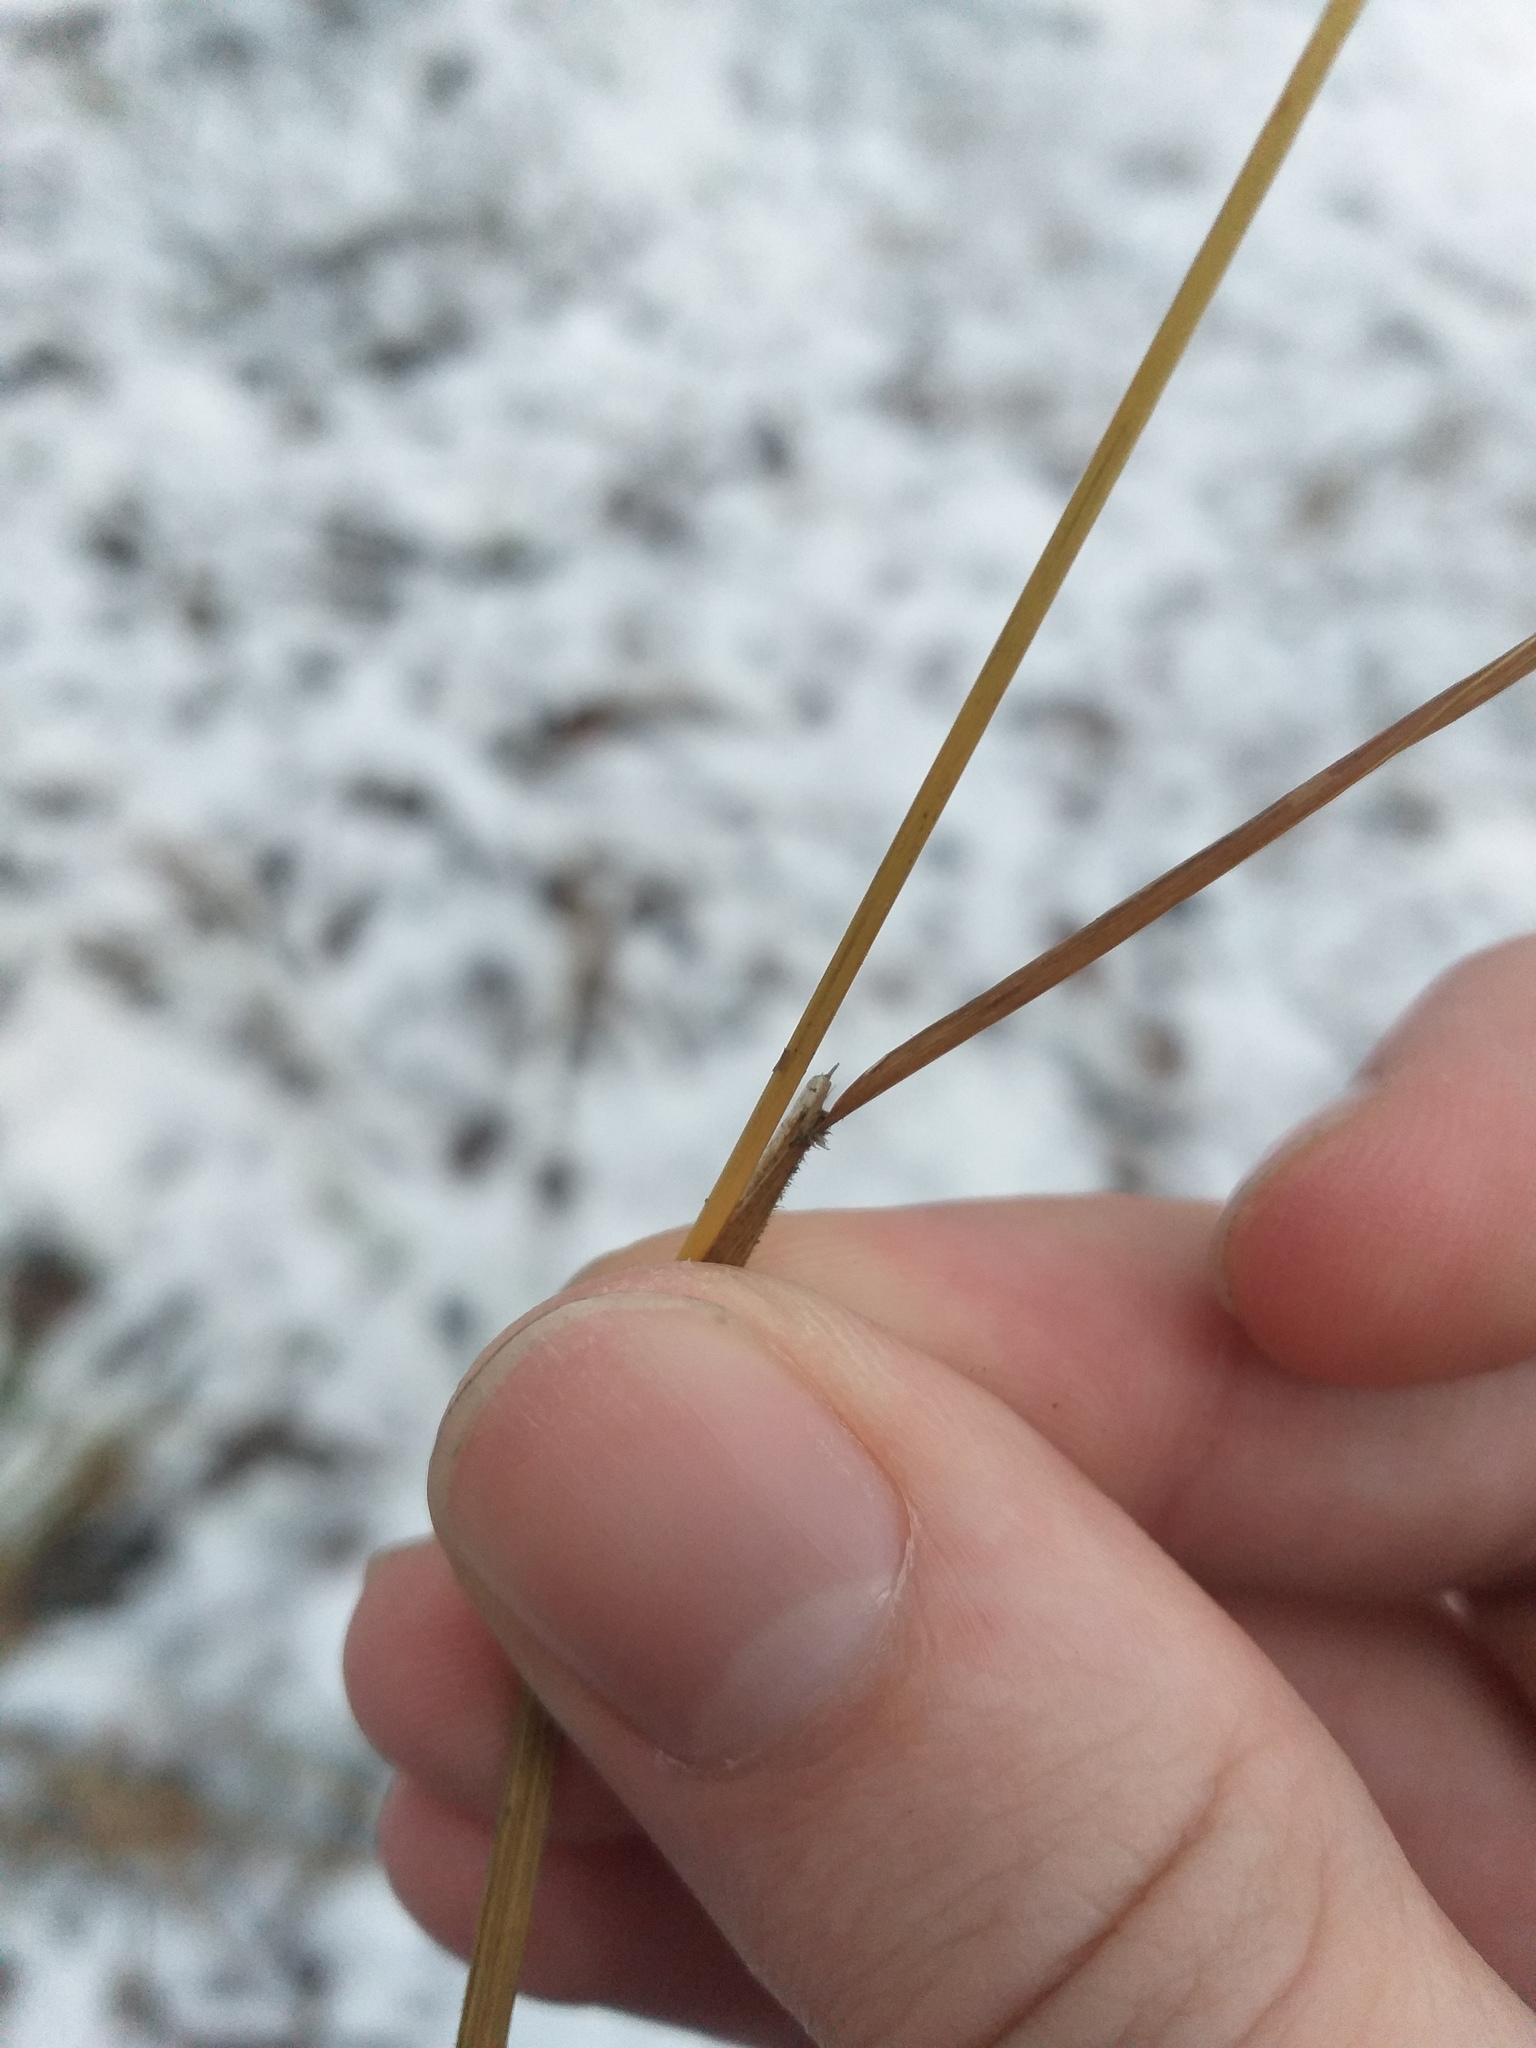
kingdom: Plantae
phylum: Tracheophyta
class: Liliopsida
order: Poales
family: Poaceae
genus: Calamagrostis
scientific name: Calamagrostis arundinacea
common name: Metskastik
